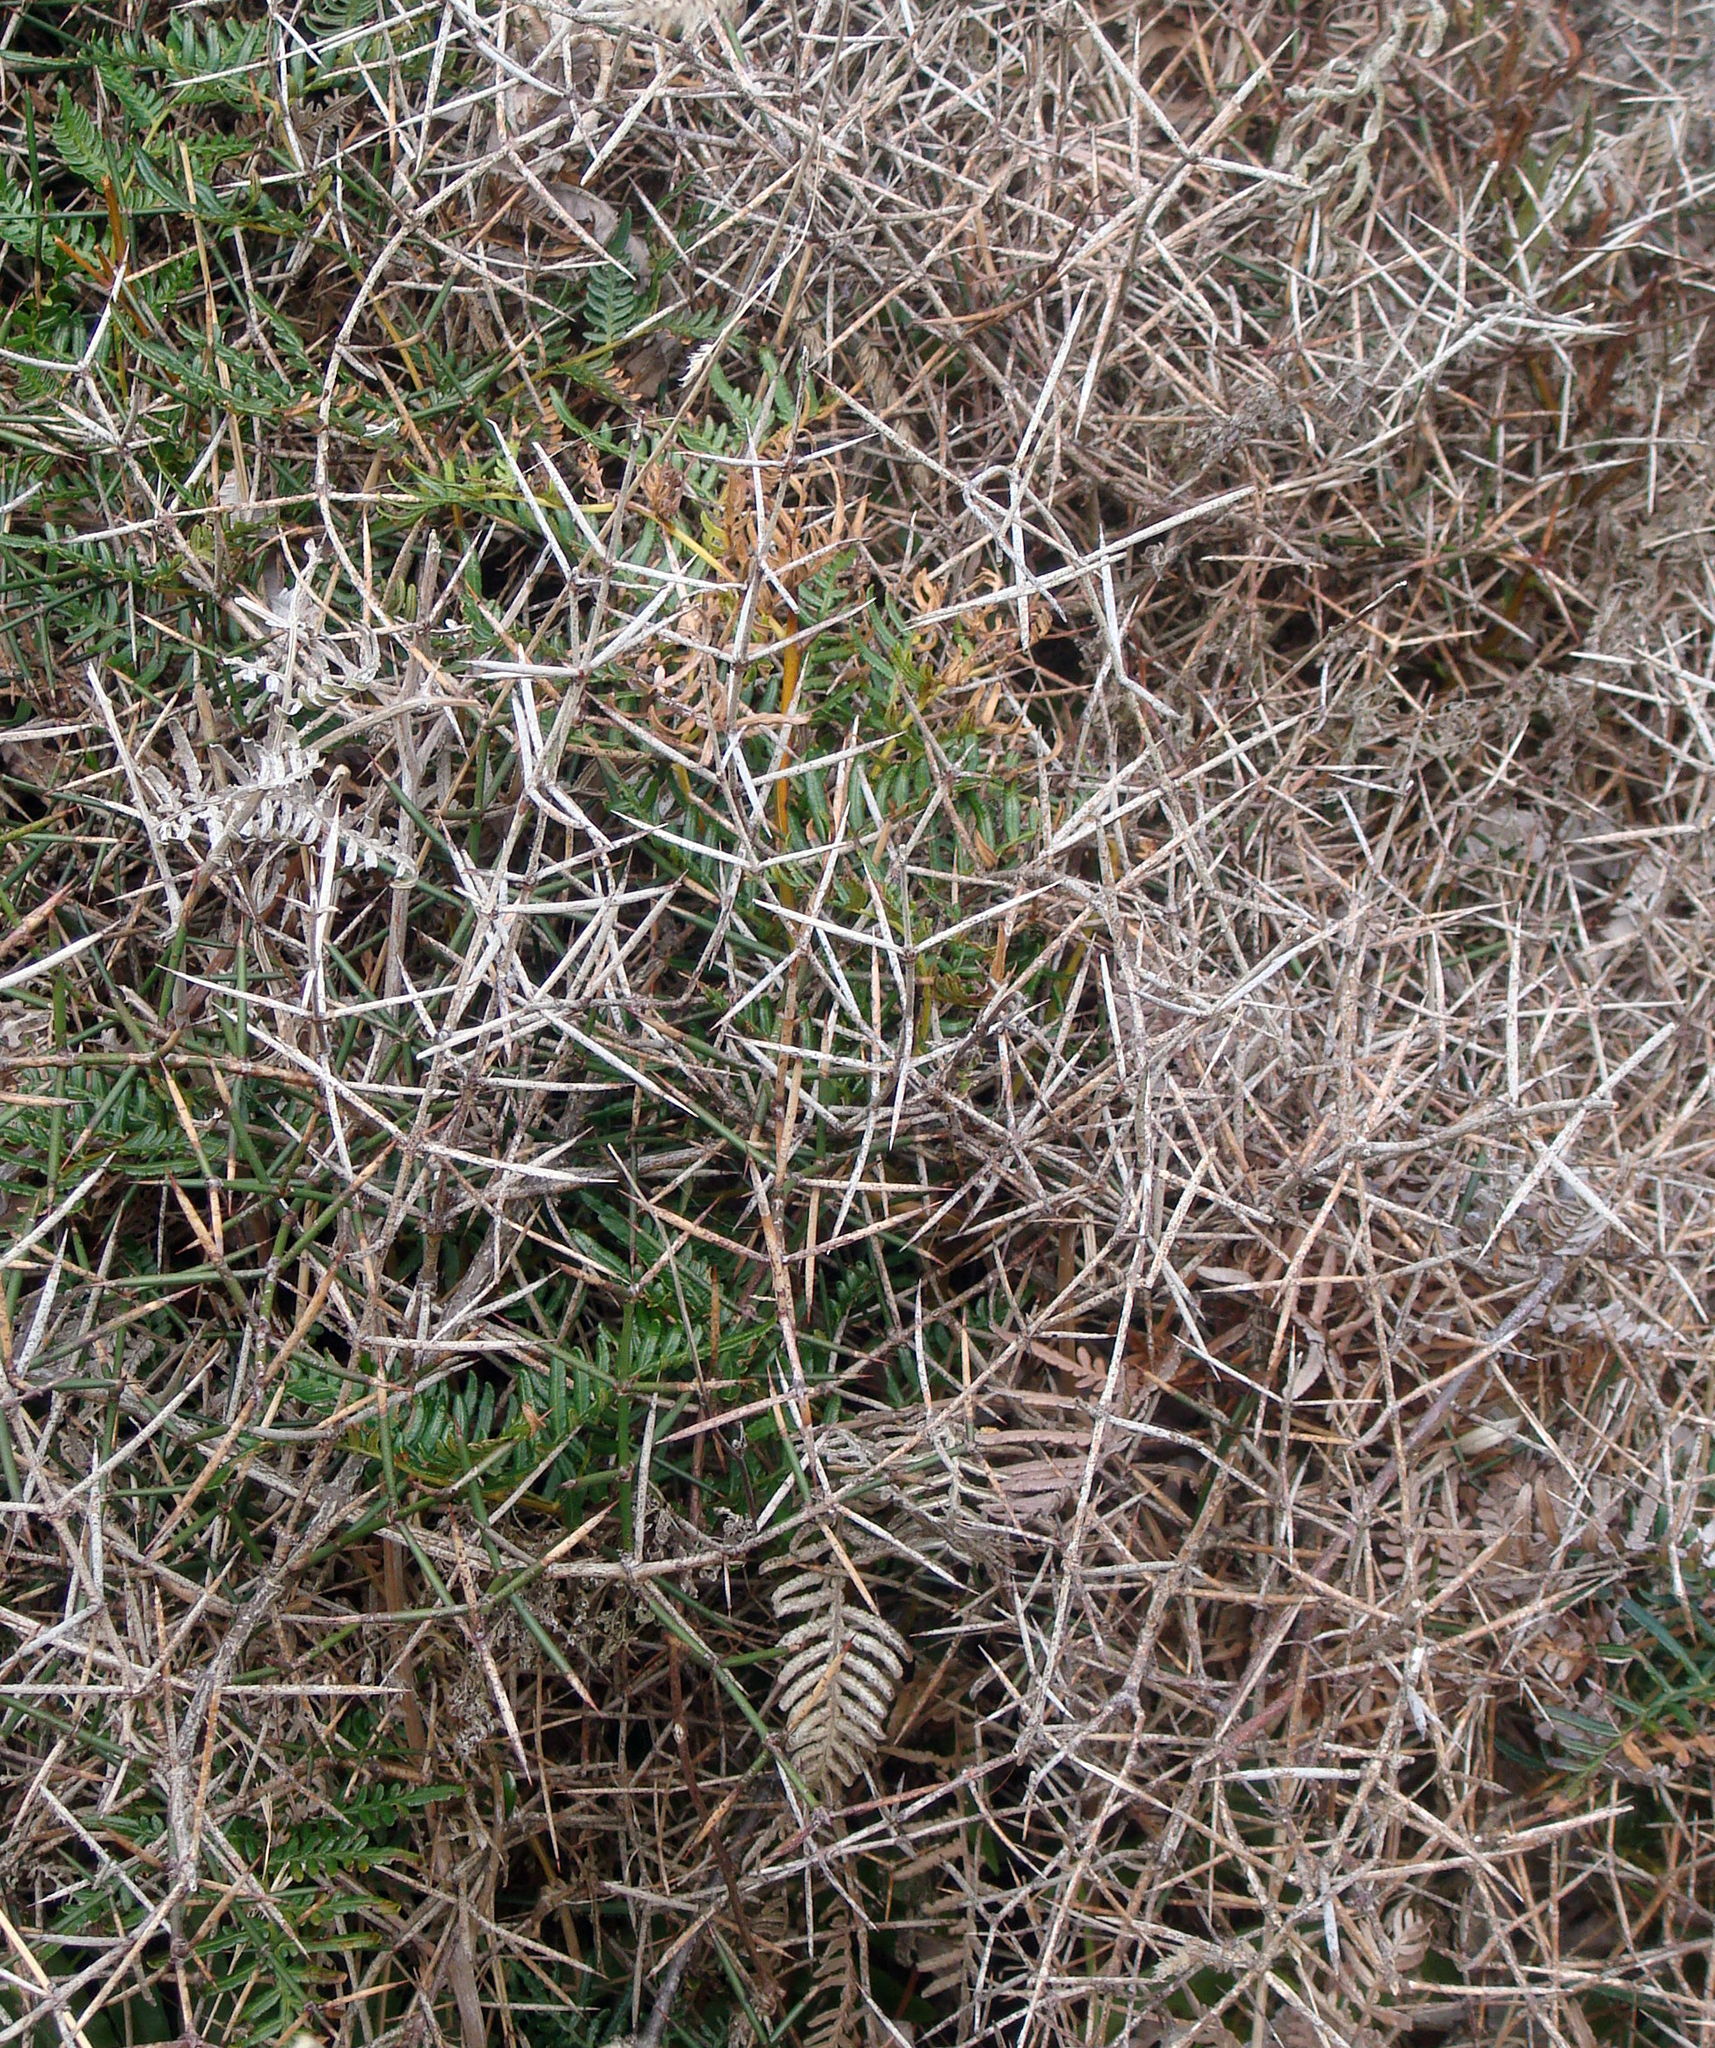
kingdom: Plantae
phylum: Tracheophyta
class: Magnoliopsida
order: Rosales
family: Rhamnaceae
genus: Discaria
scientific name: Discaria toumatou
